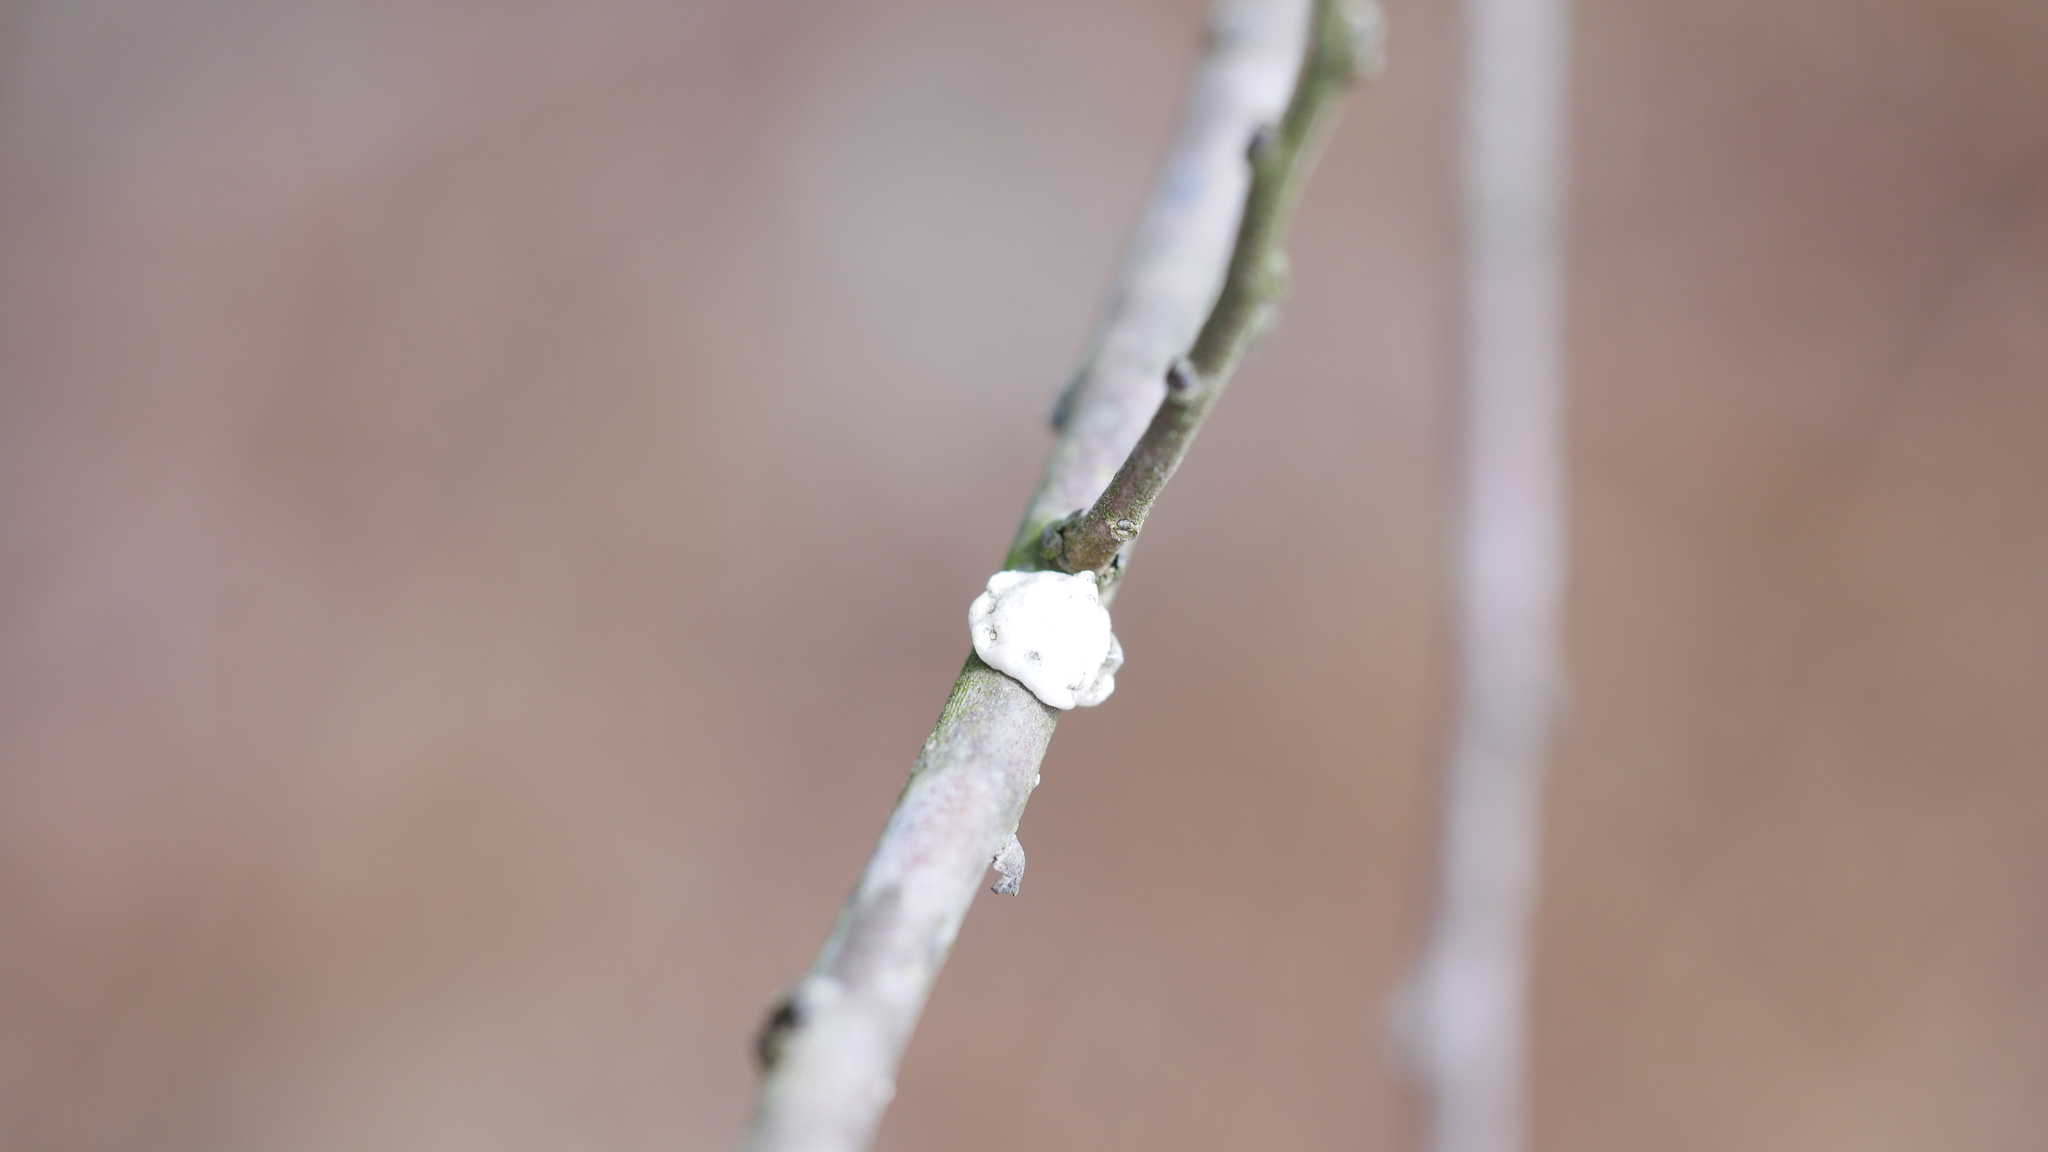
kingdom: Animalia
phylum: Arthropoda
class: Insecta
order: Hemiptera
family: Coccidae
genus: Ceroplastes
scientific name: Ceroplastes ceriferus
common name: Indian wax scale
